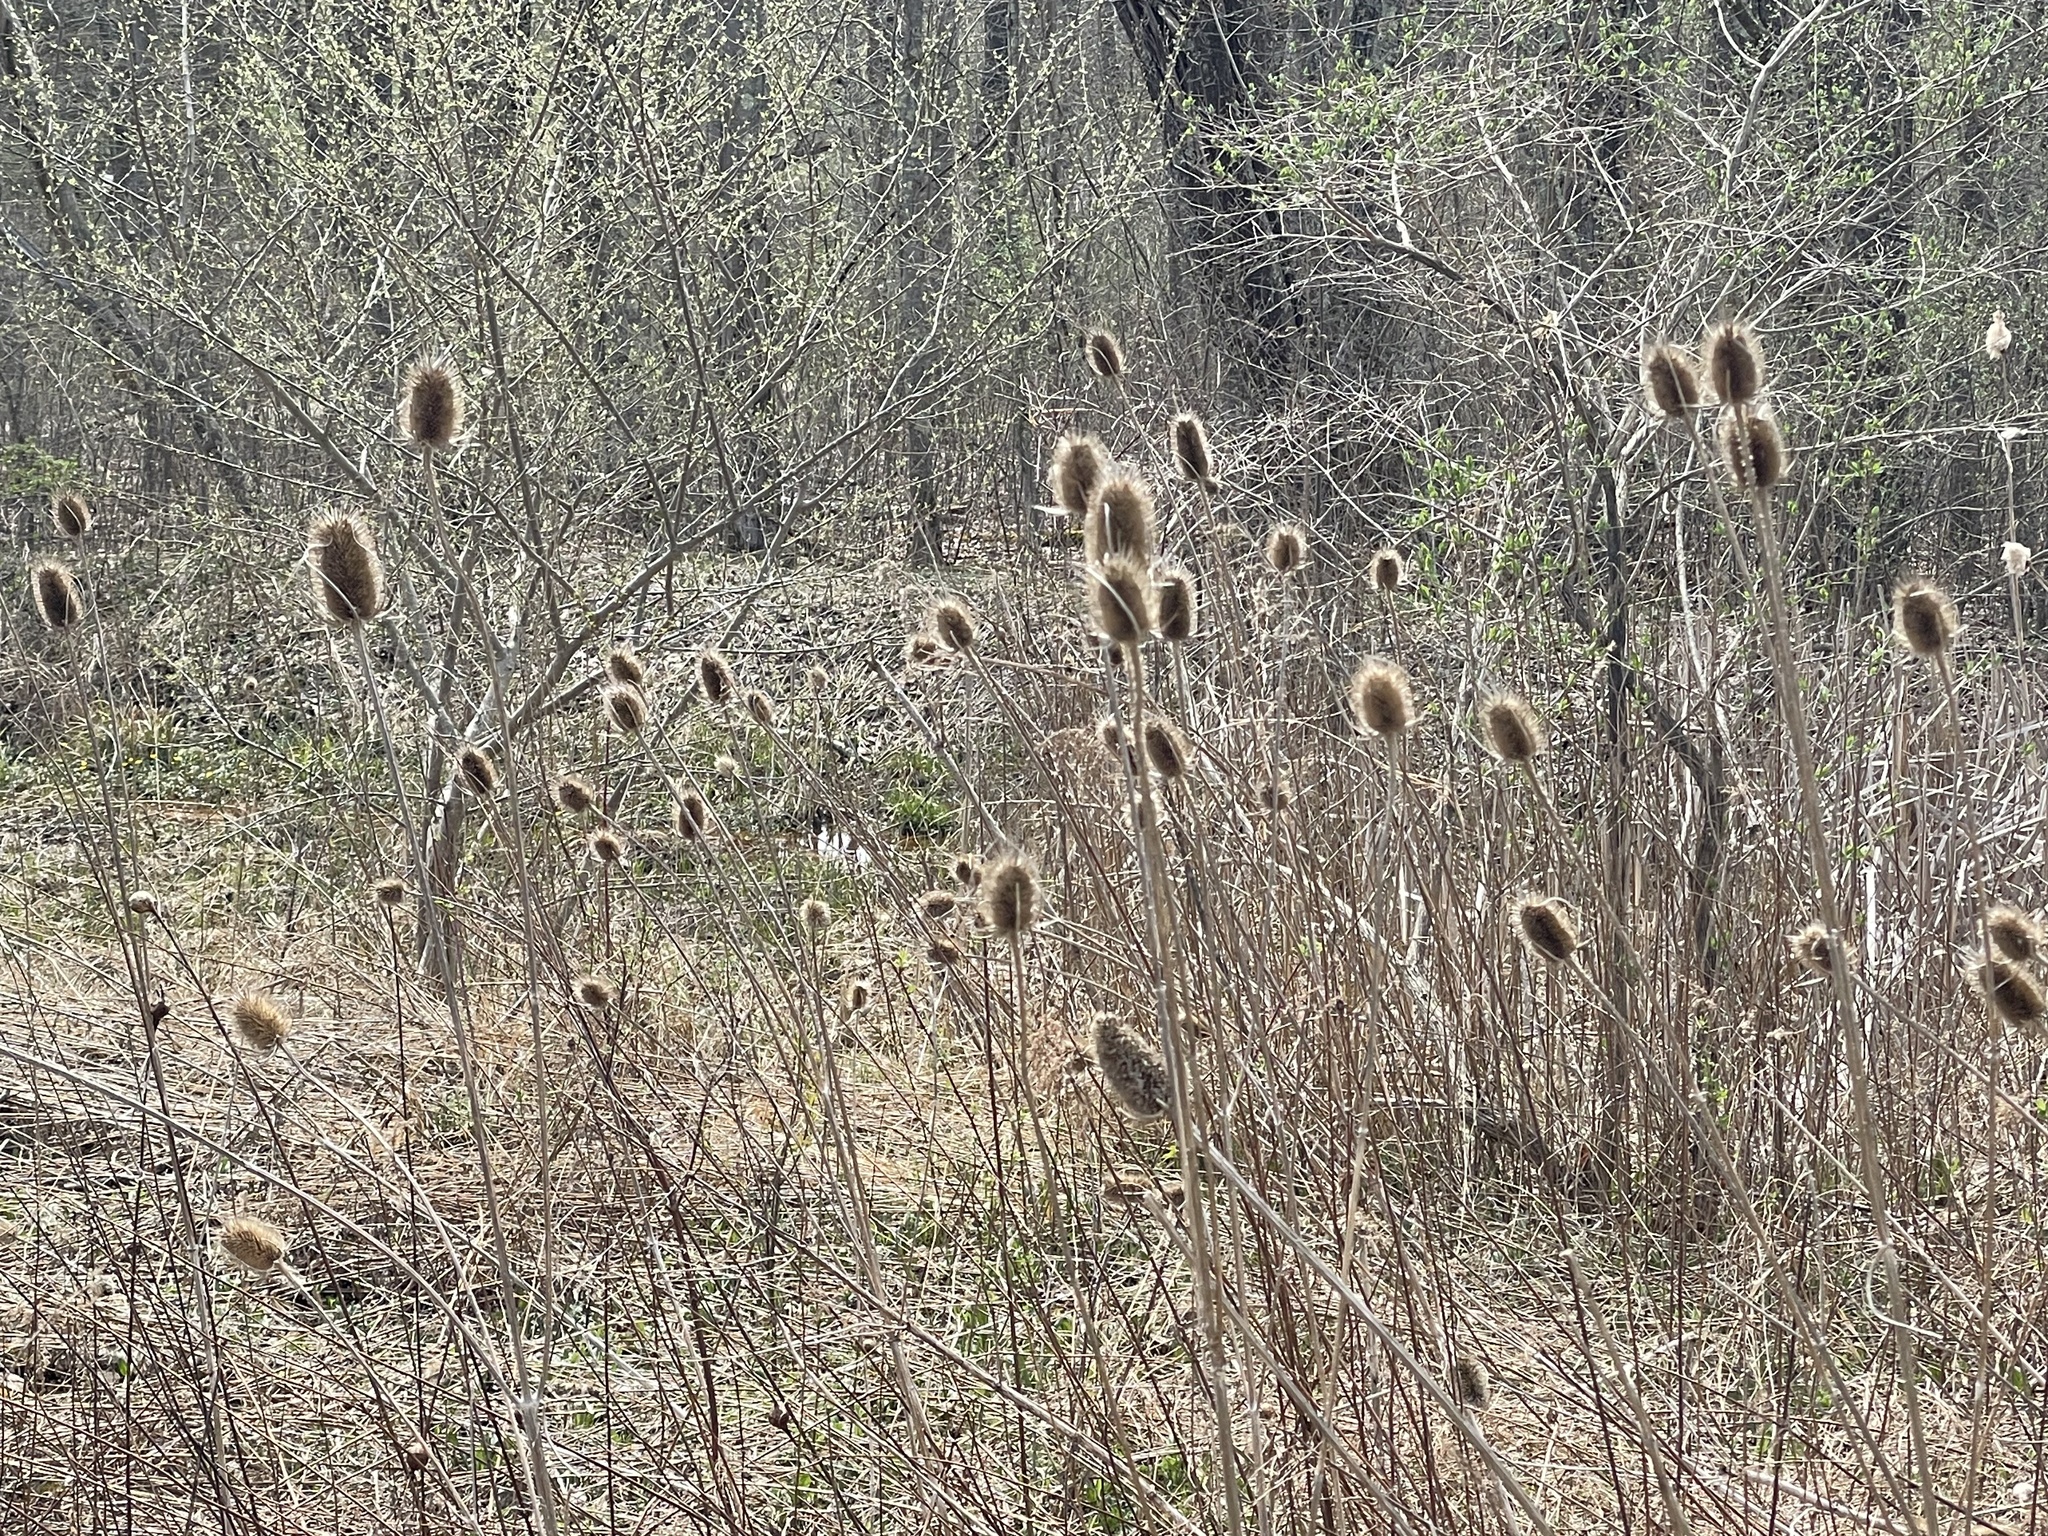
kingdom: Plantae
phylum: Tracheophyta
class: Magnoliopsida
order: Dipsacales
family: Caprifoliaceae
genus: Dipsacus
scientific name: Dipsacus fullonum
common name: Teasel
